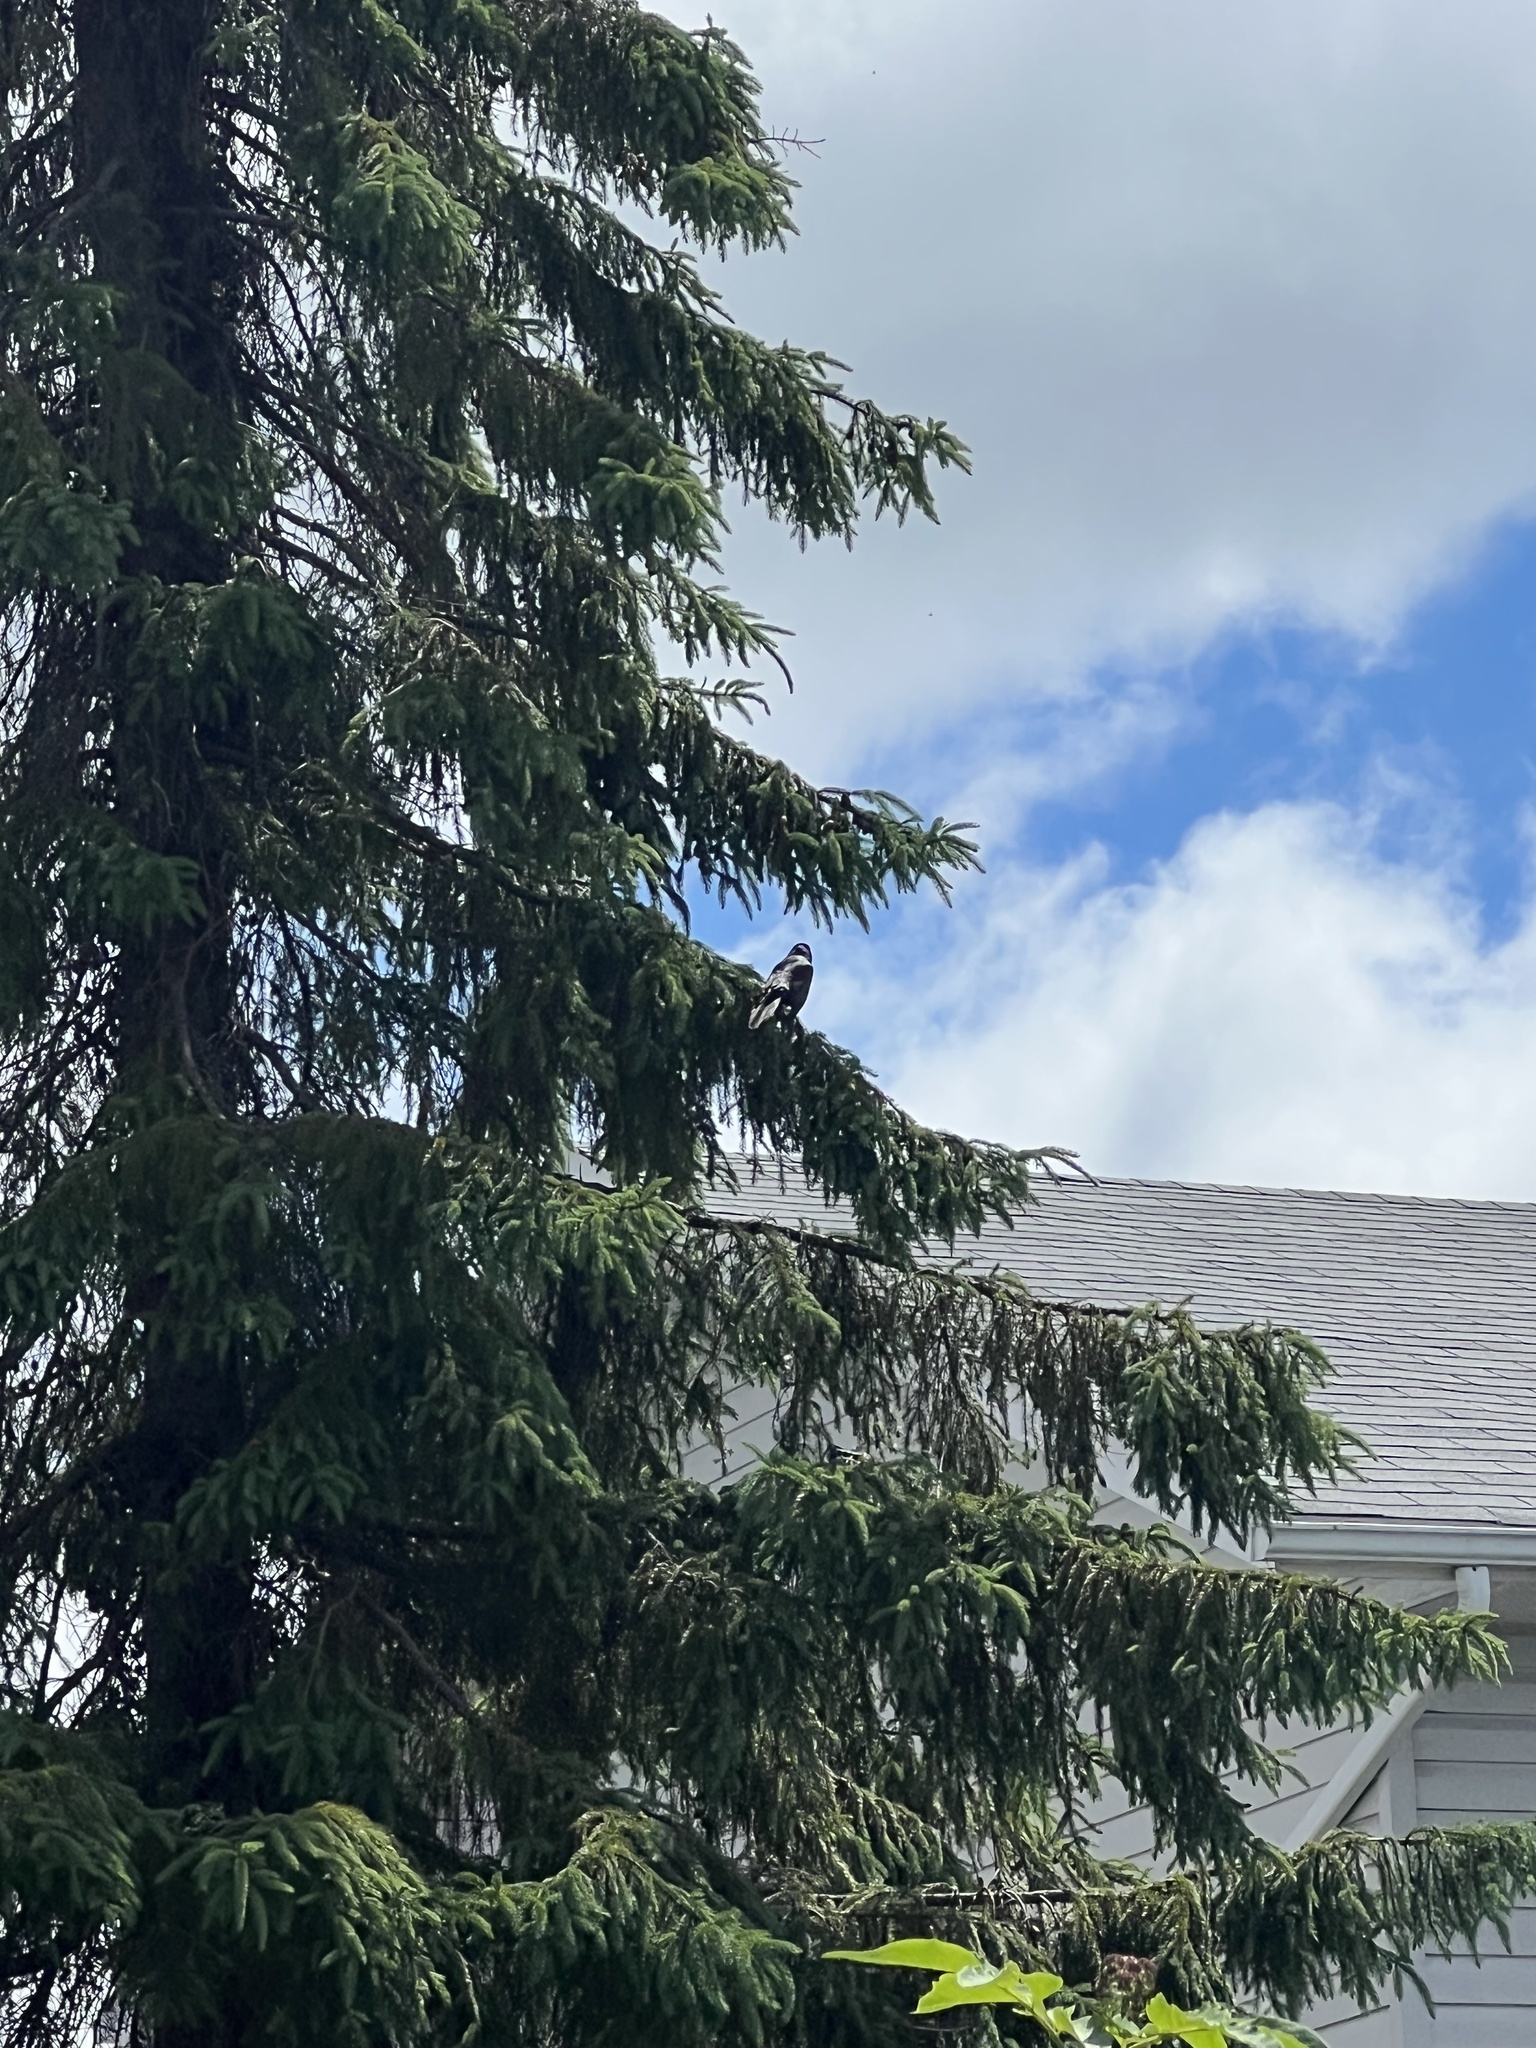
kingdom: Animalia
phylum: Chordata
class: Aves
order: Passeriformes
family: Icteridae
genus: Quiscalus
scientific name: Quiscalus quiscula
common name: Common grackle
